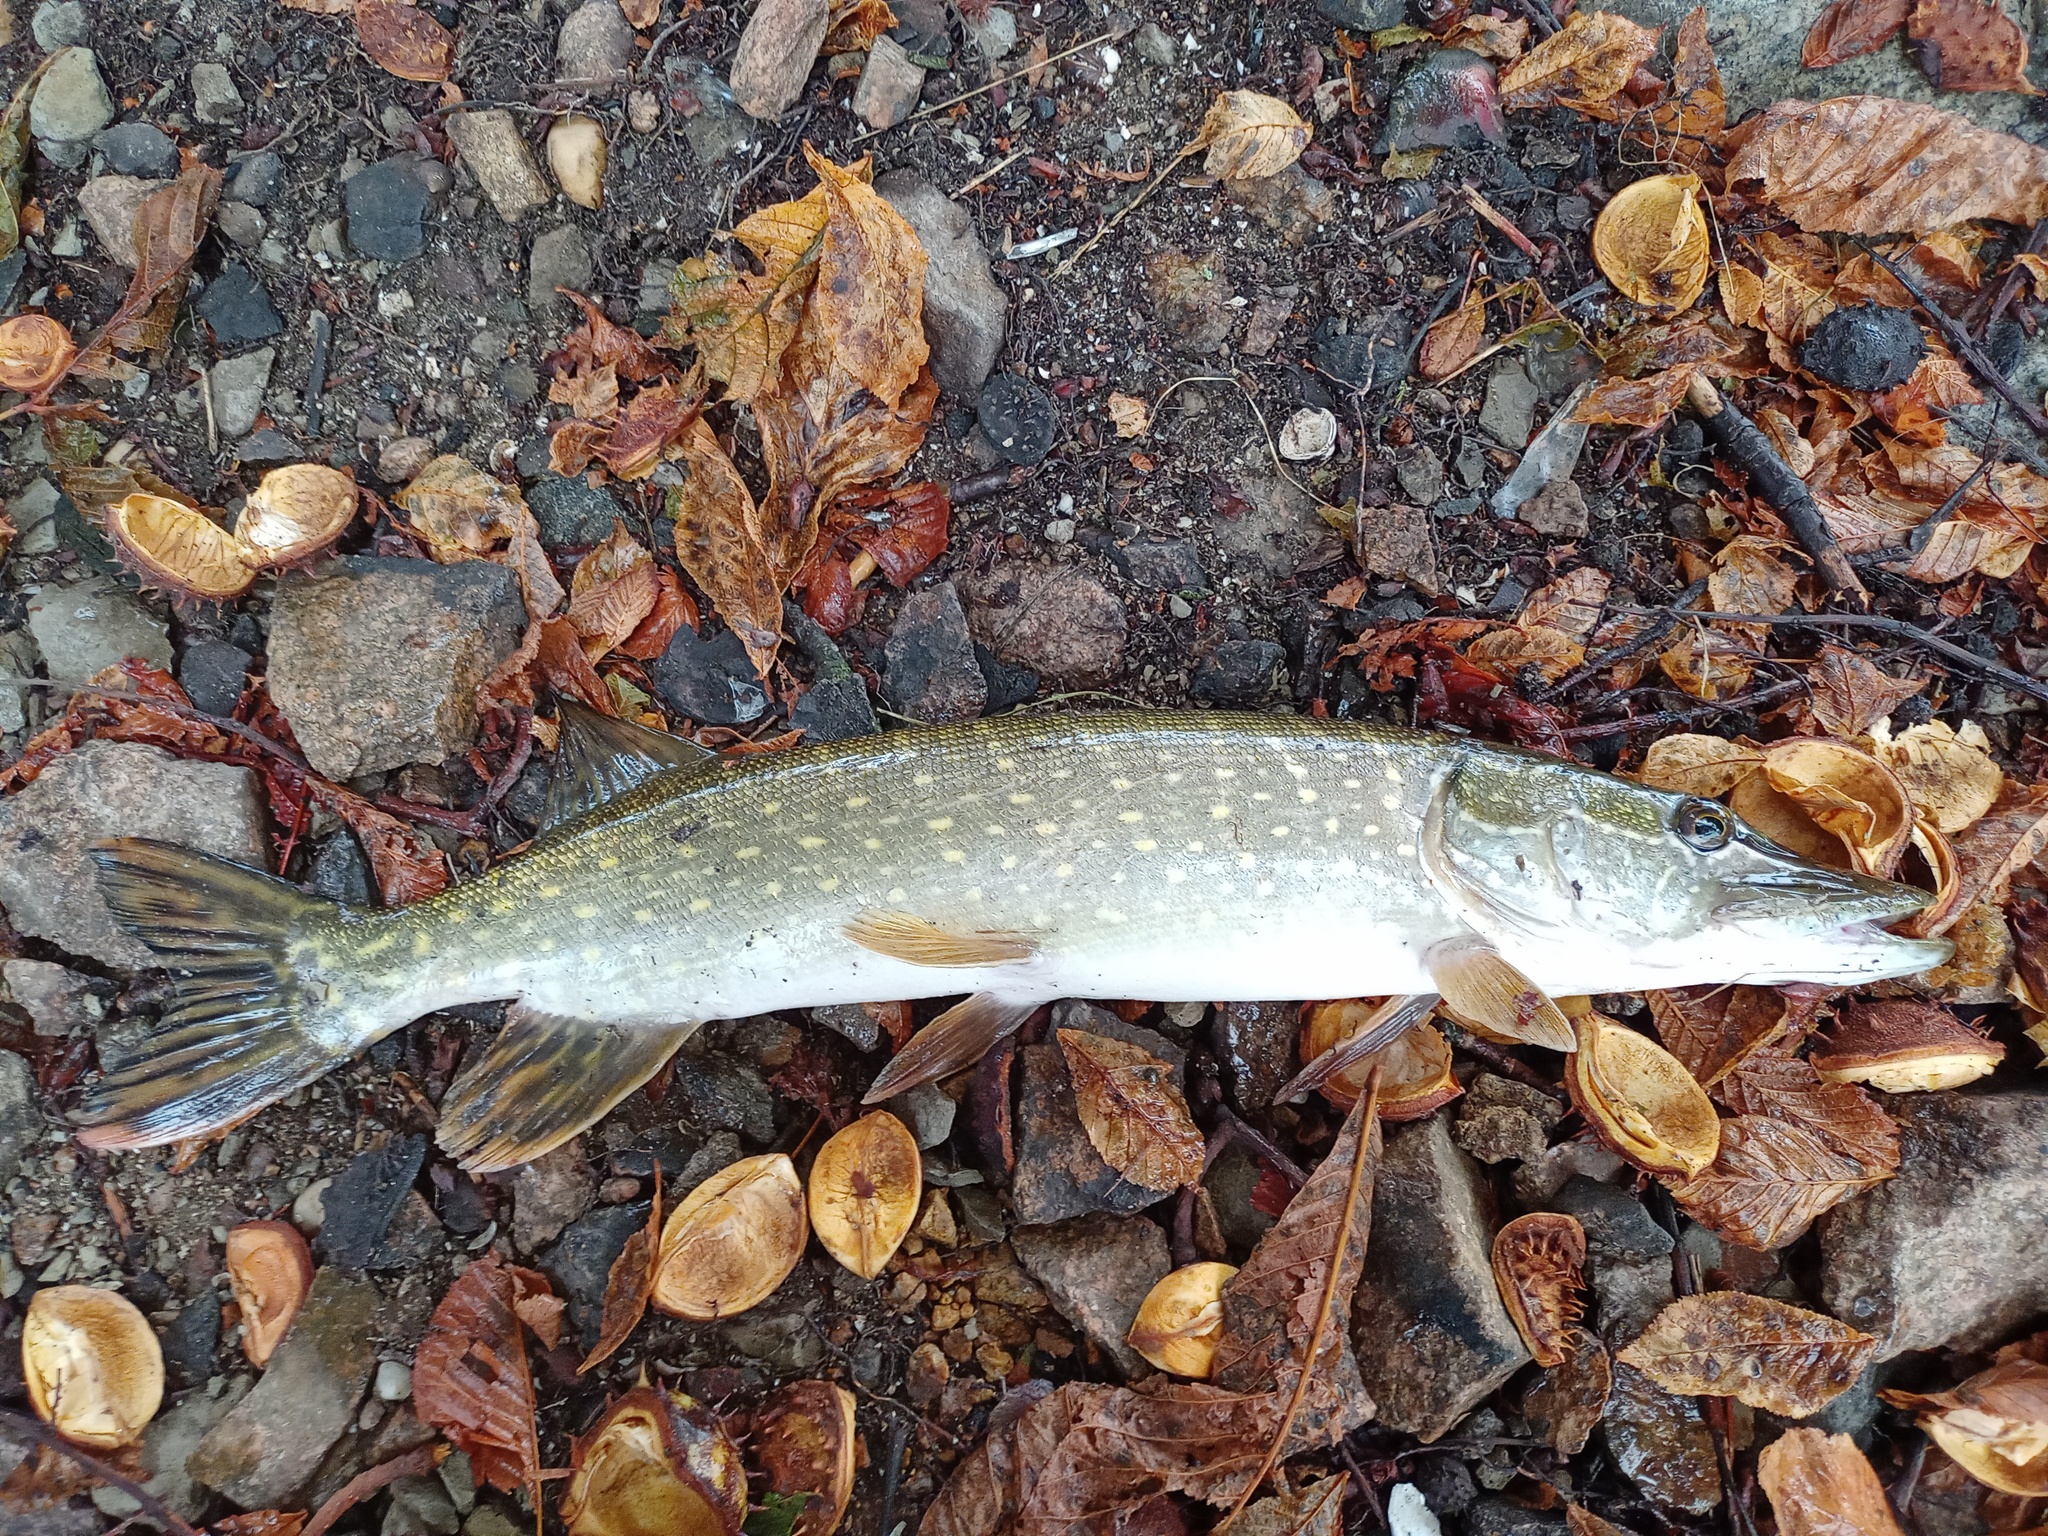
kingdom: Animalia
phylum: Chordata
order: Esociformes
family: Esocidae
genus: Esox
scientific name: Esox lucius
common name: Northern pike
